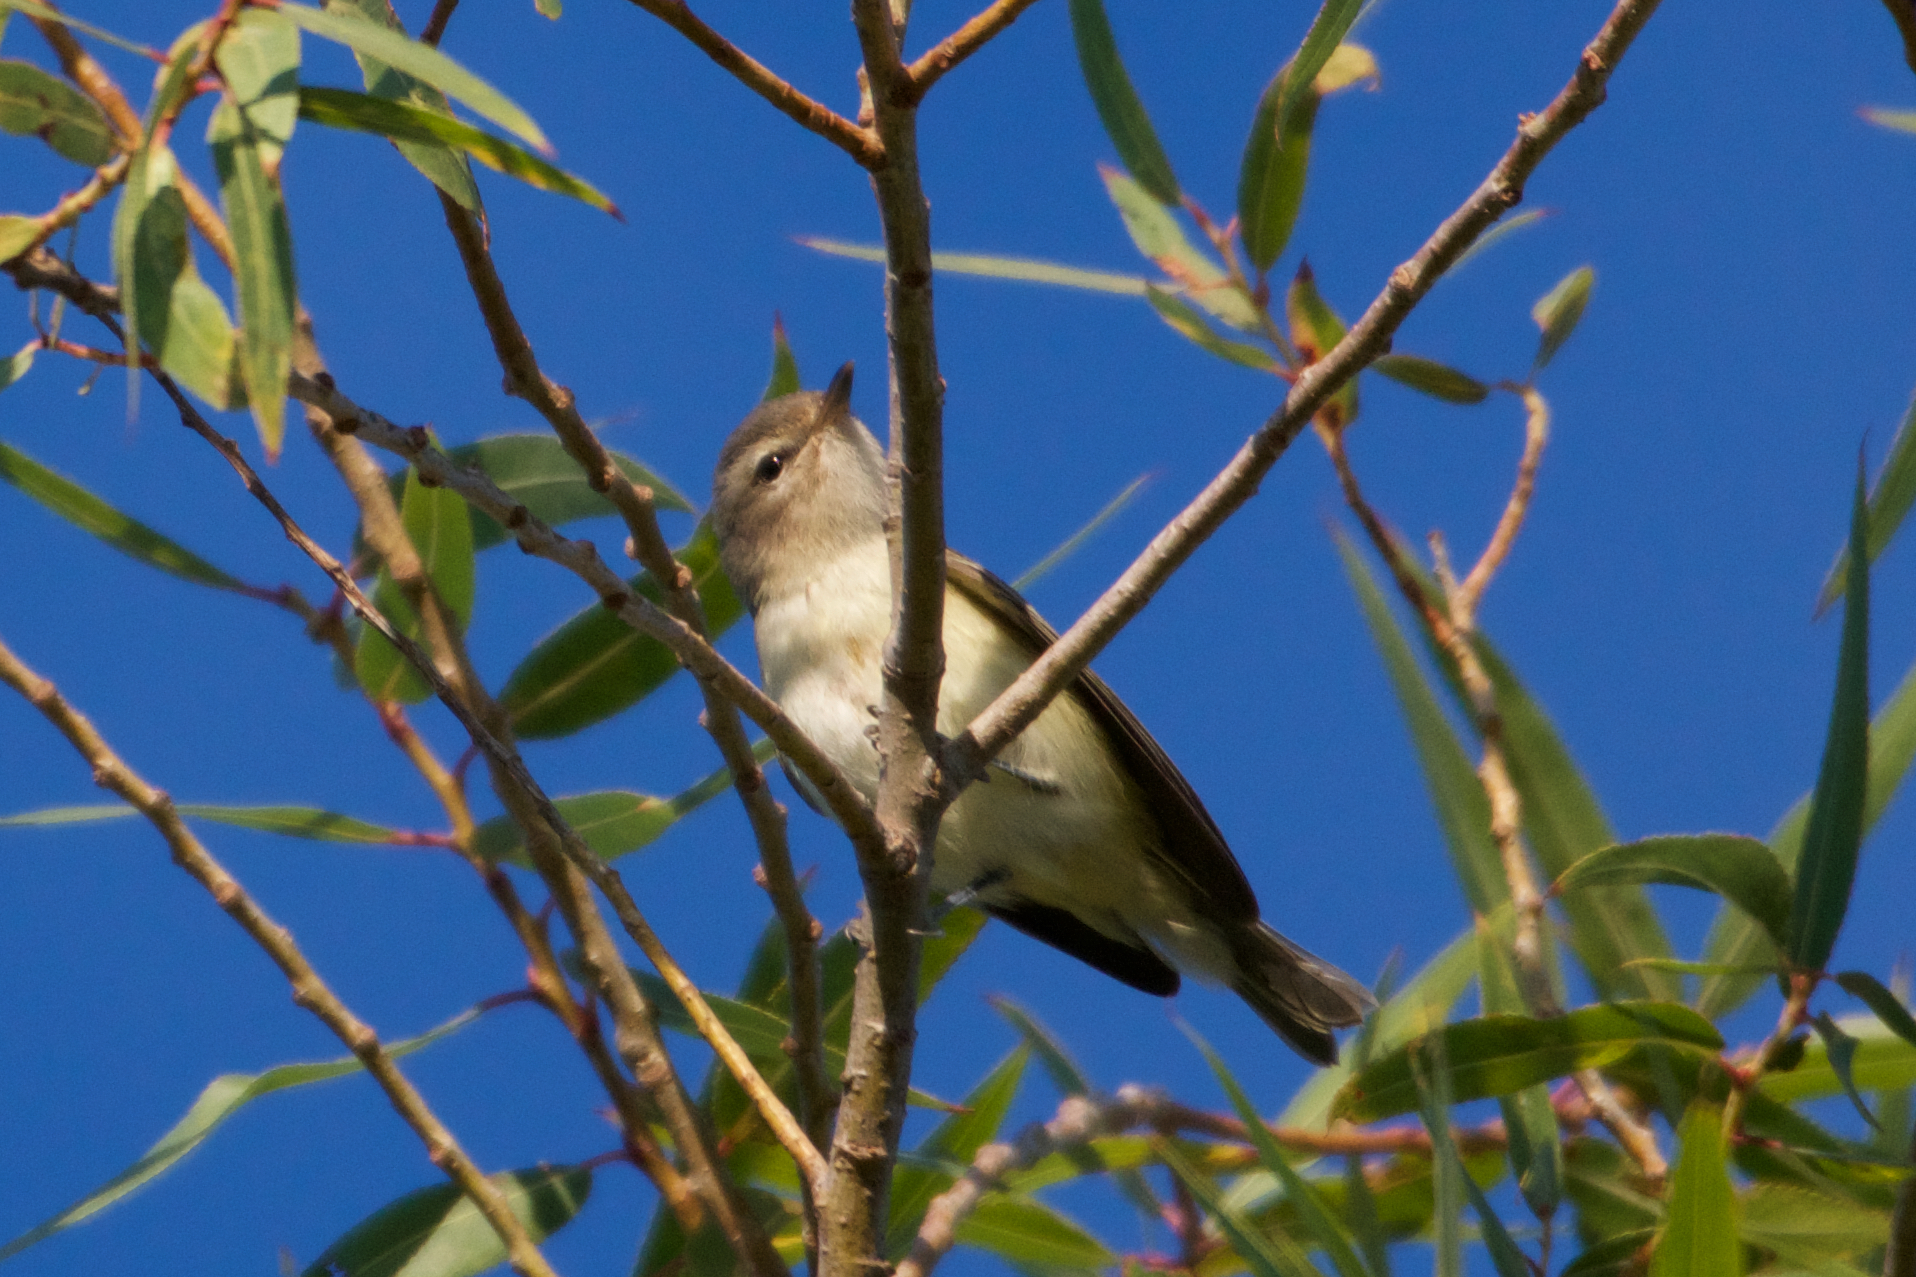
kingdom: Animalia
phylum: Chordata
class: Aves
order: Passeriformes
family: Vireonidae
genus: Vireo
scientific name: Vireo gilvus
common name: Warbling vireo
